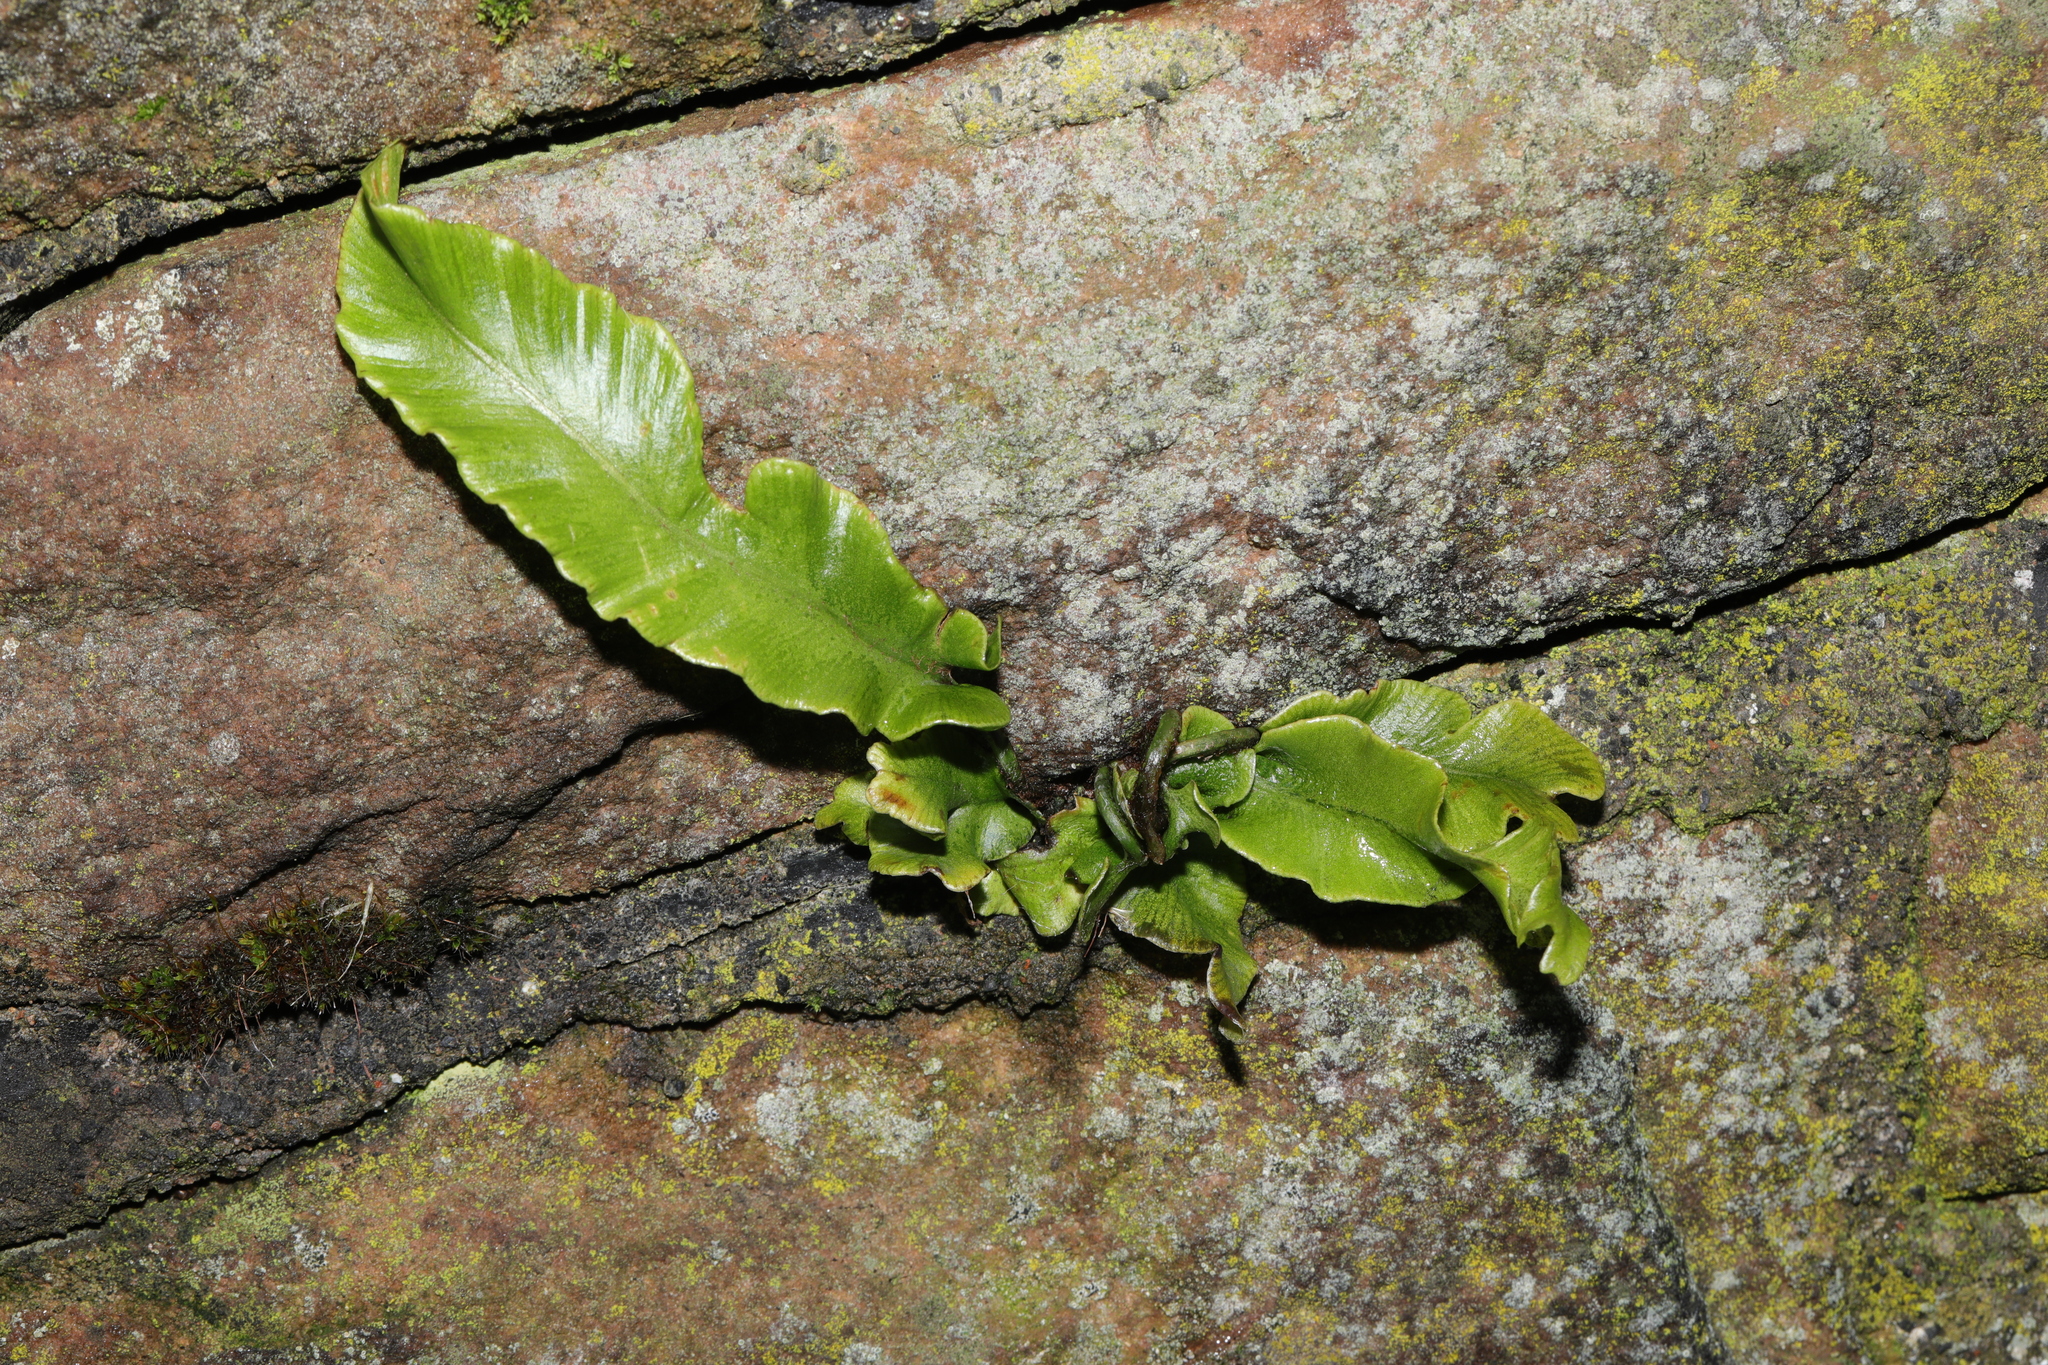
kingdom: Plantae
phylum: Tracheophyta
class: Polypodiopsida
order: Polypodiales
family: Aspleniaceae
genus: Asplenium
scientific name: Asplenium scolopendrium
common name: Hart's-tongue fern
